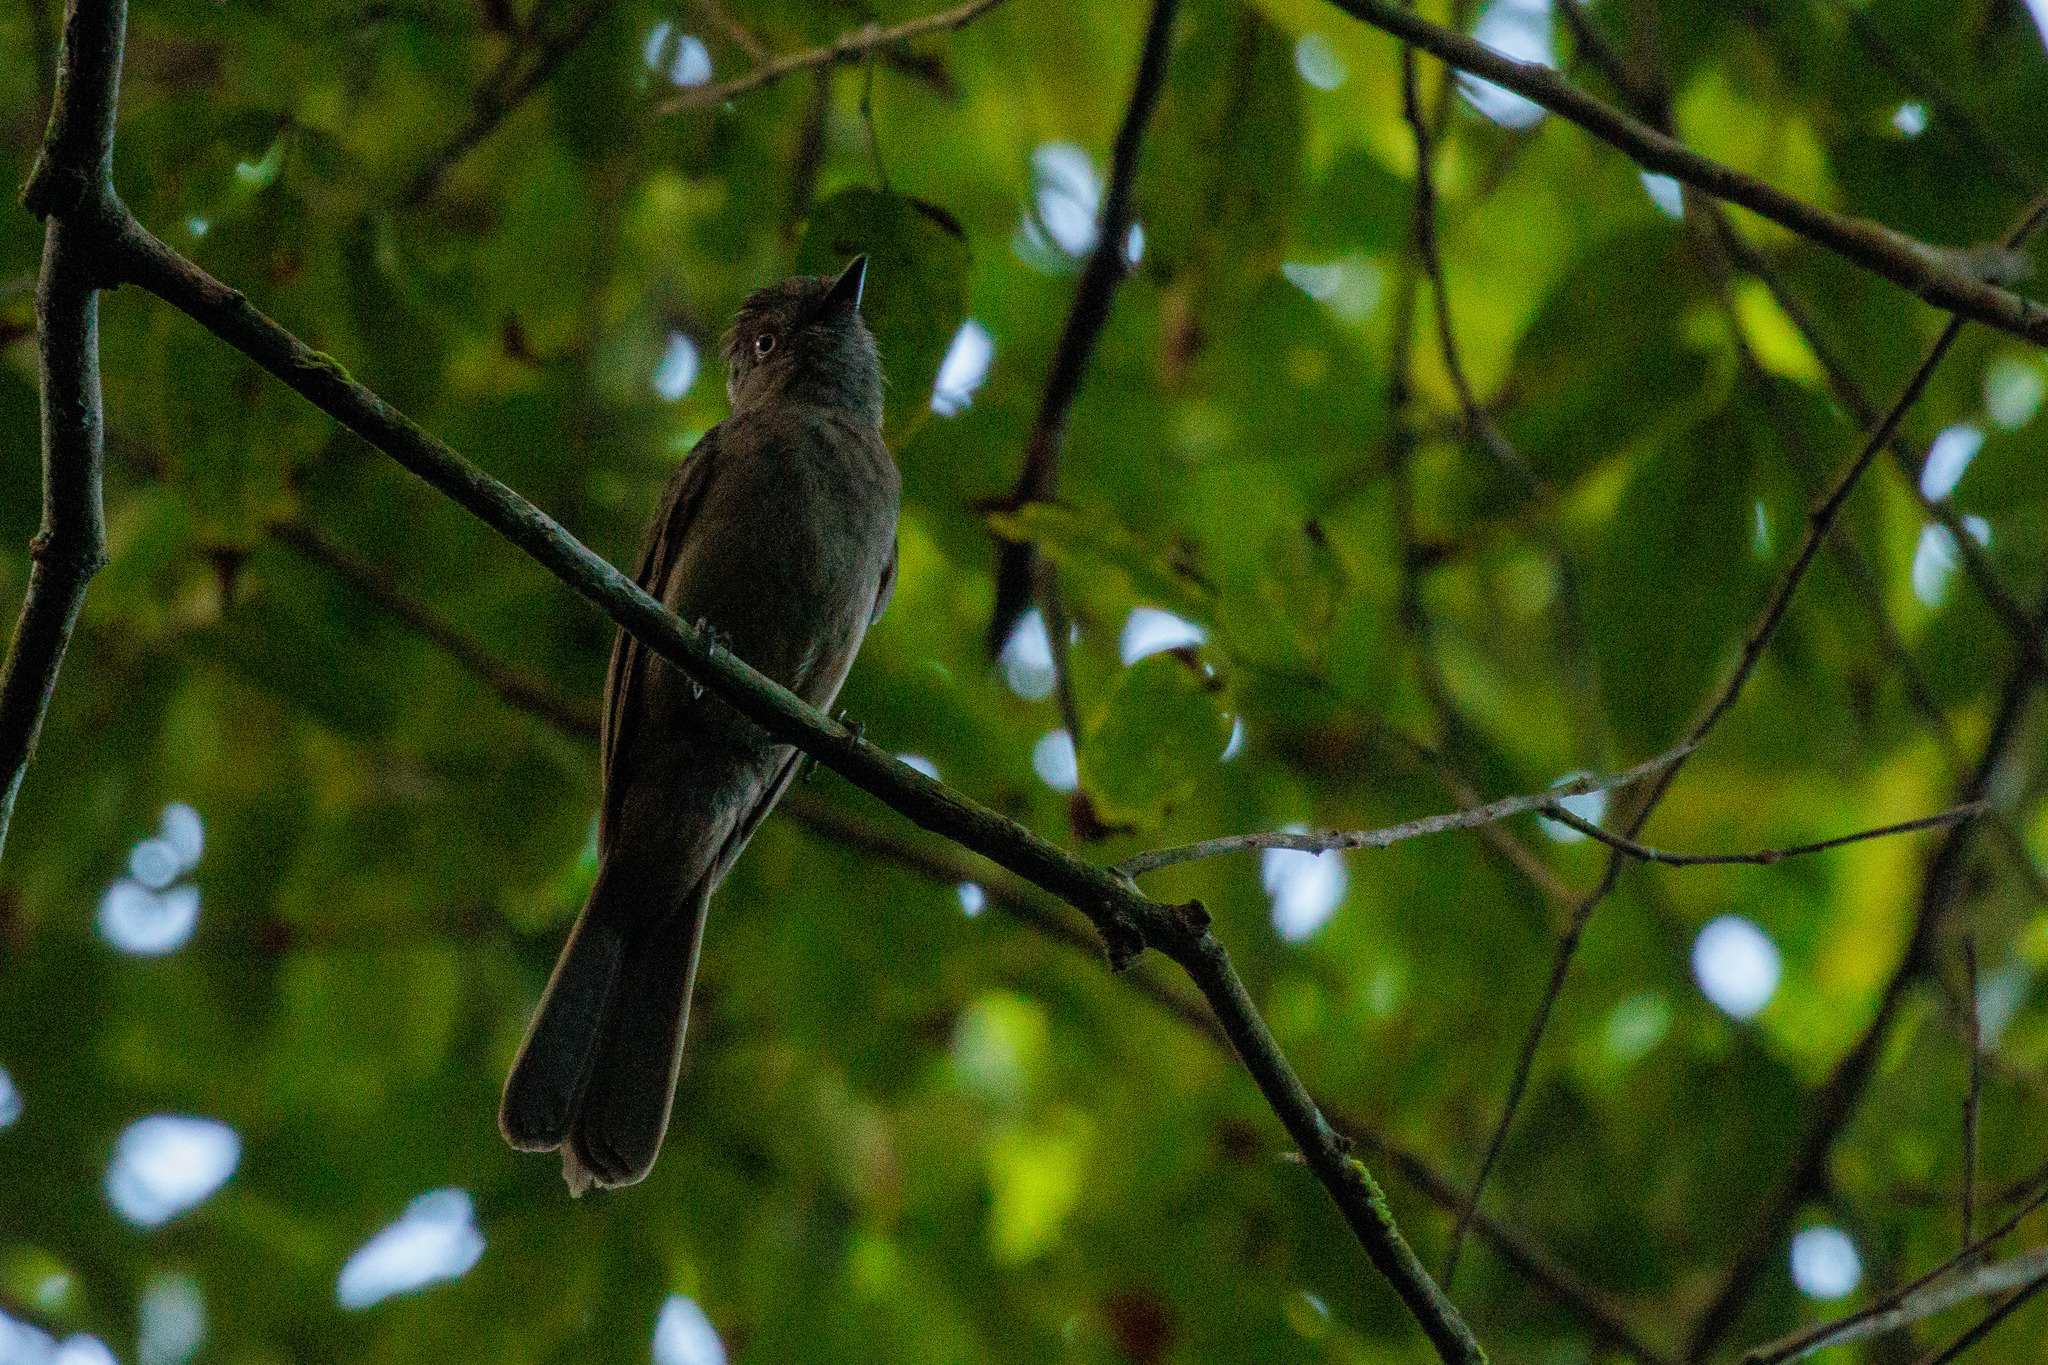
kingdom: Animalia
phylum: Chordata
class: Aves
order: Passeriformes
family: Tyrannidae
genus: Rhytipterna
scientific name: Rhytipterna simplex
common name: Greyish mourner
